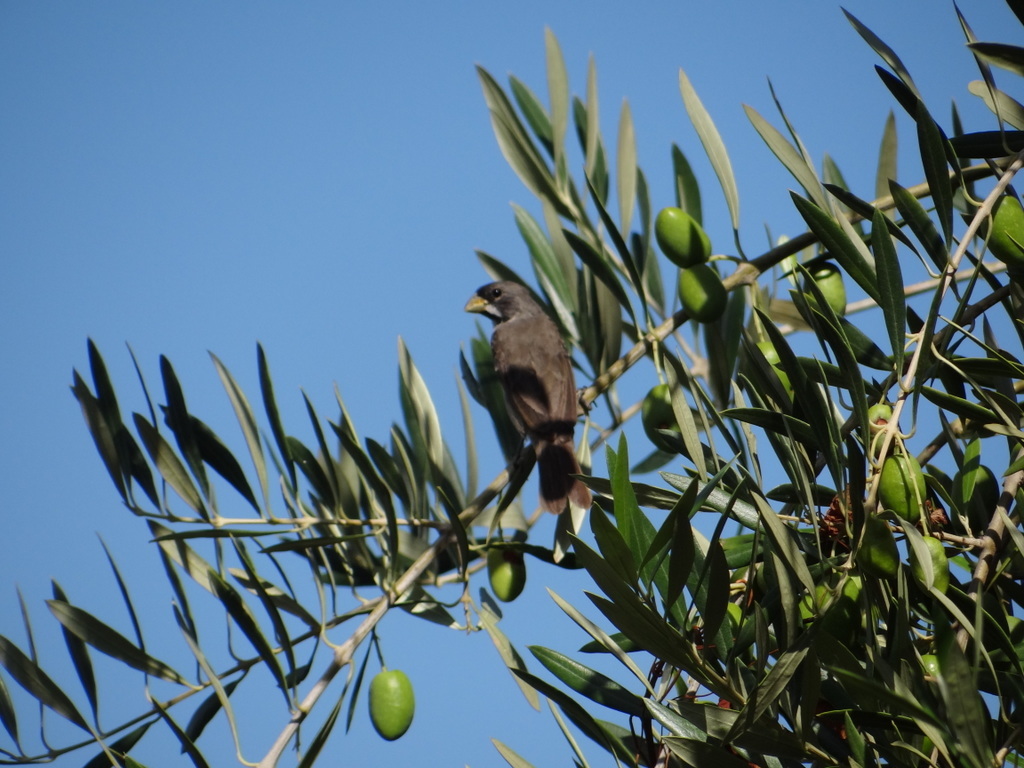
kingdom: Animalia
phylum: Chordata
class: Aves
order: Passeriformes
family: Thraupidae
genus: Sporophila
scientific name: Sporophila caerulescens
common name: Double-collared seedeater
